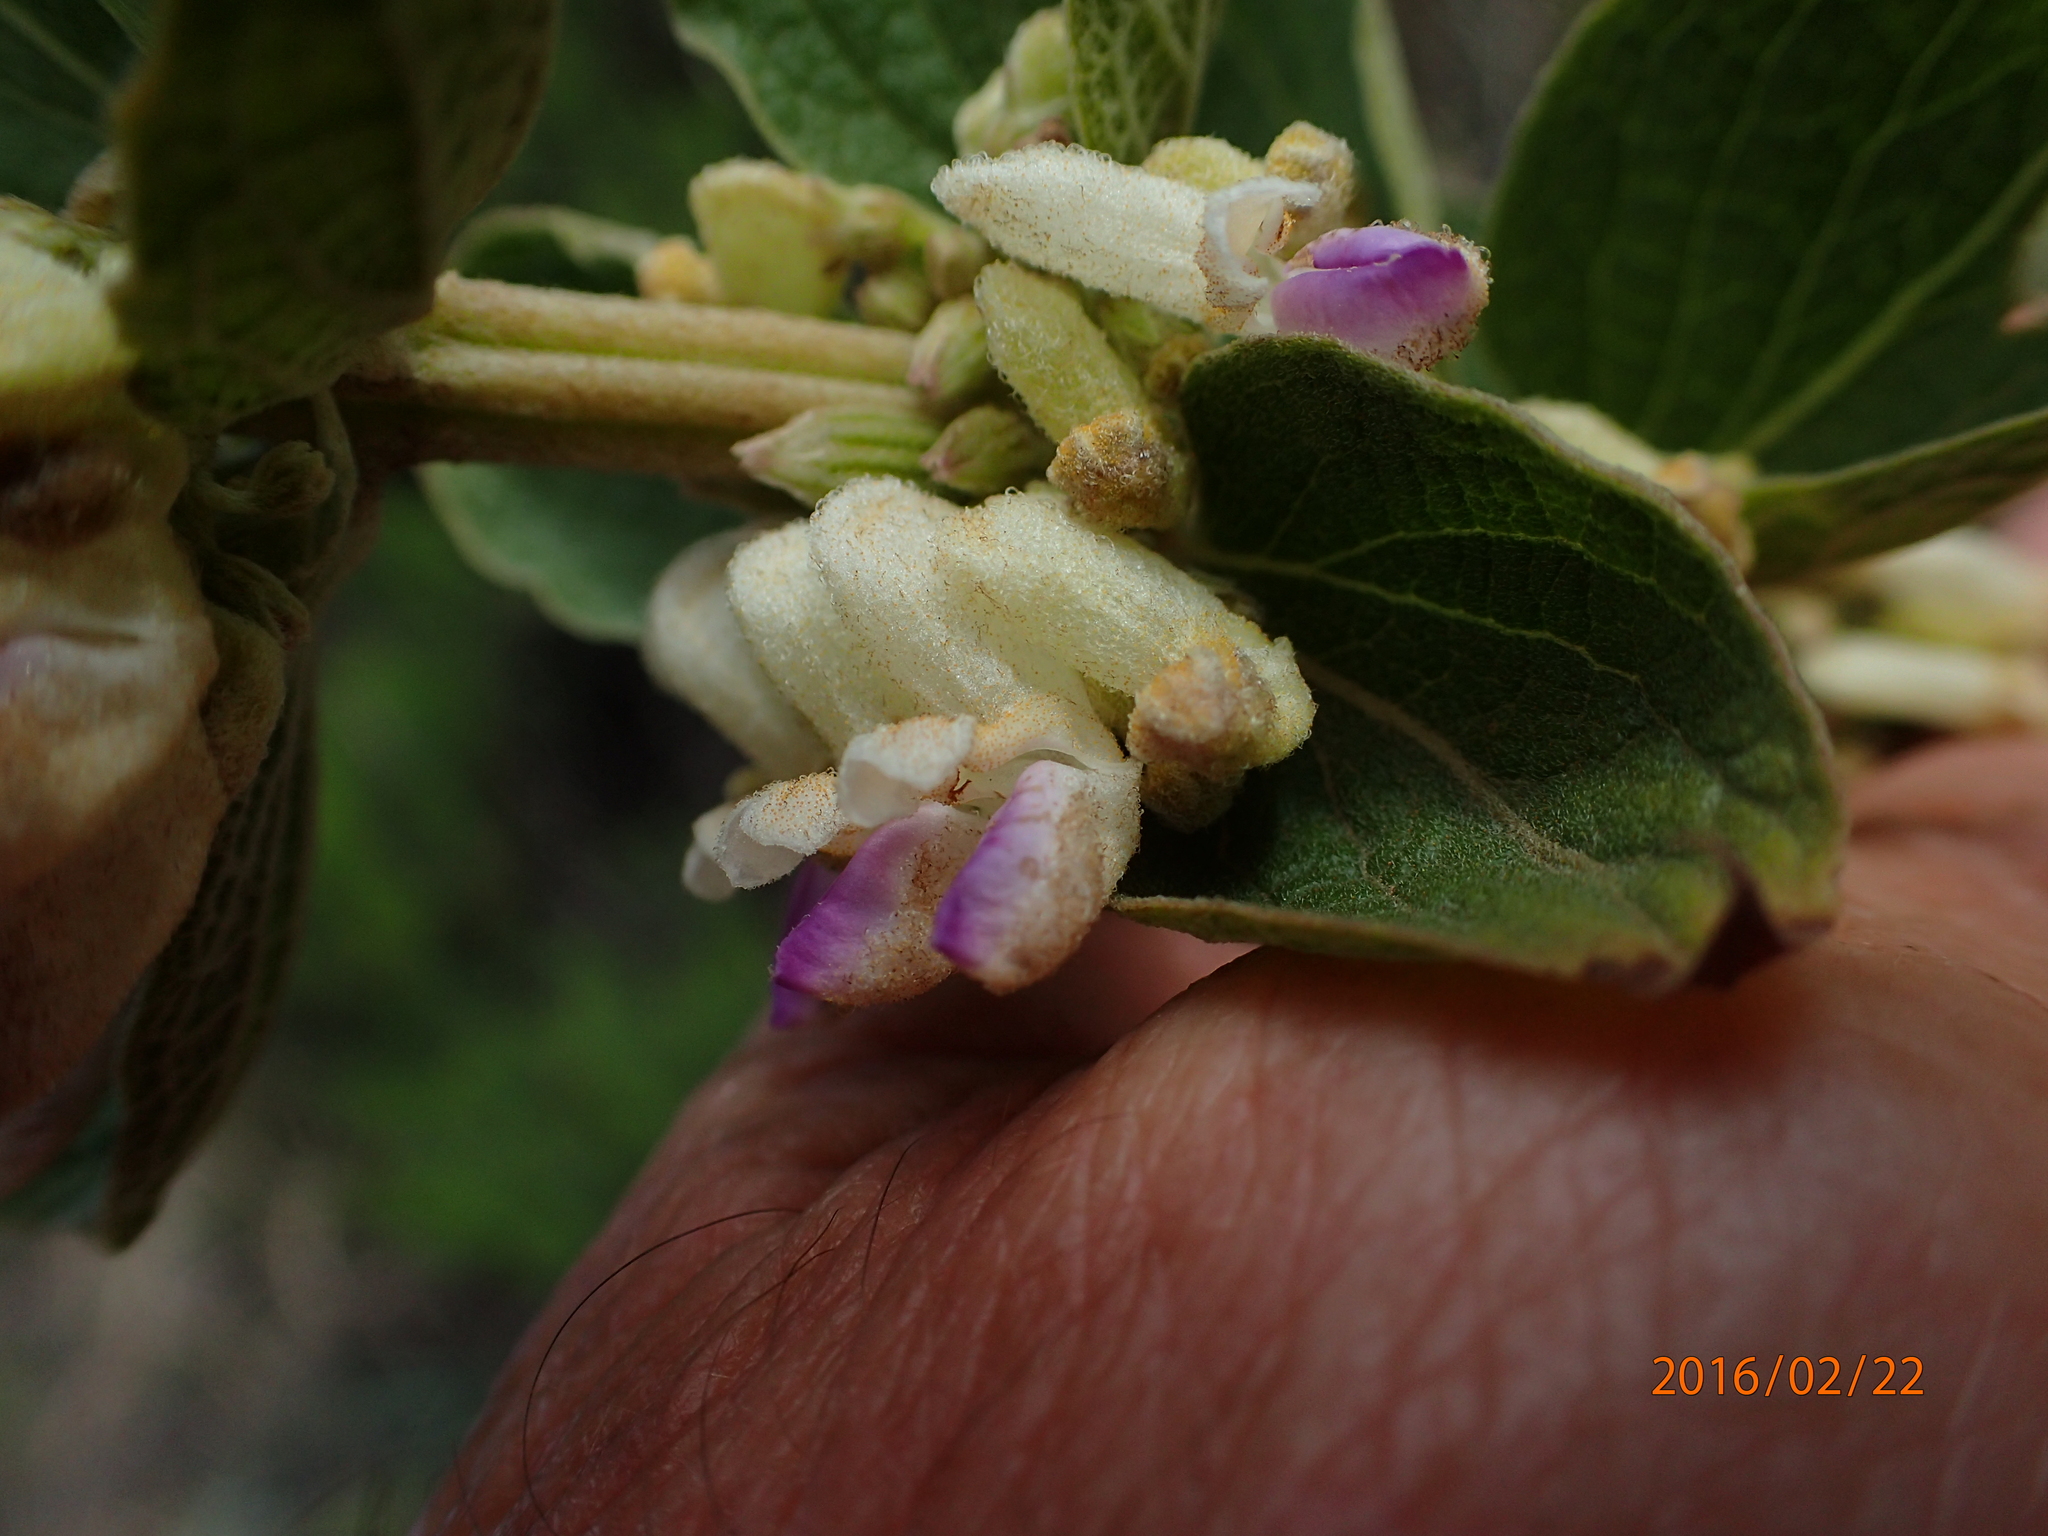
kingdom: Plantae
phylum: Tracheophyta
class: Magnoliopsida
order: Lamiales
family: Lamiaceae
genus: Coleus
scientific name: Coleus calycinus
